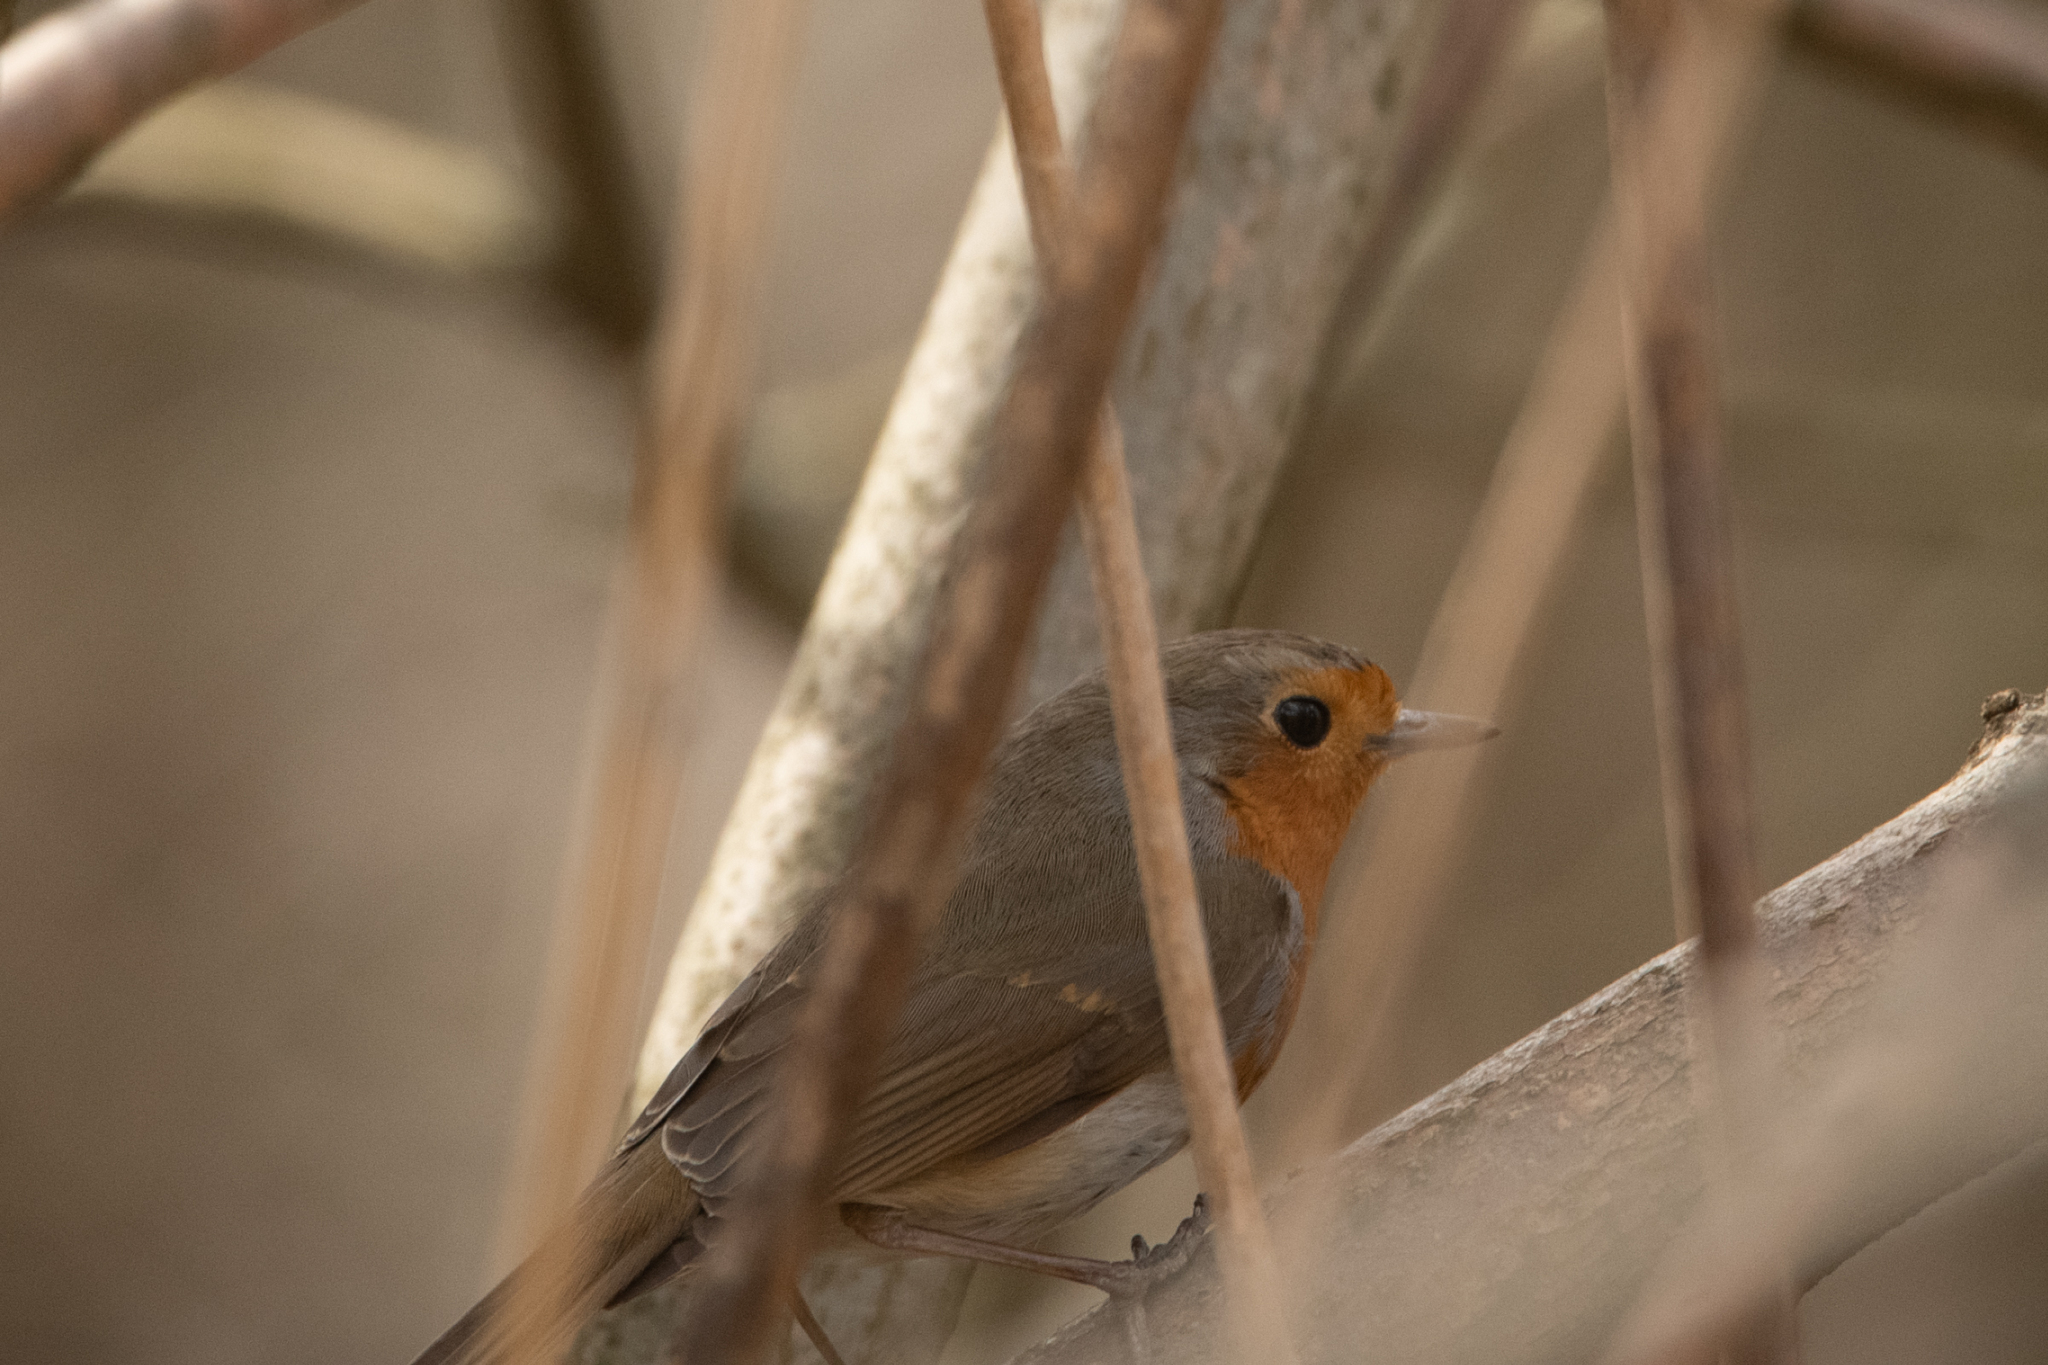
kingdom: Animalia
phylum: Chordata
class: Aves
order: Passeriformes
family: Muscicapidae
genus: Erithacus
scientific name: Erithacus rubecula
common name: European robin
